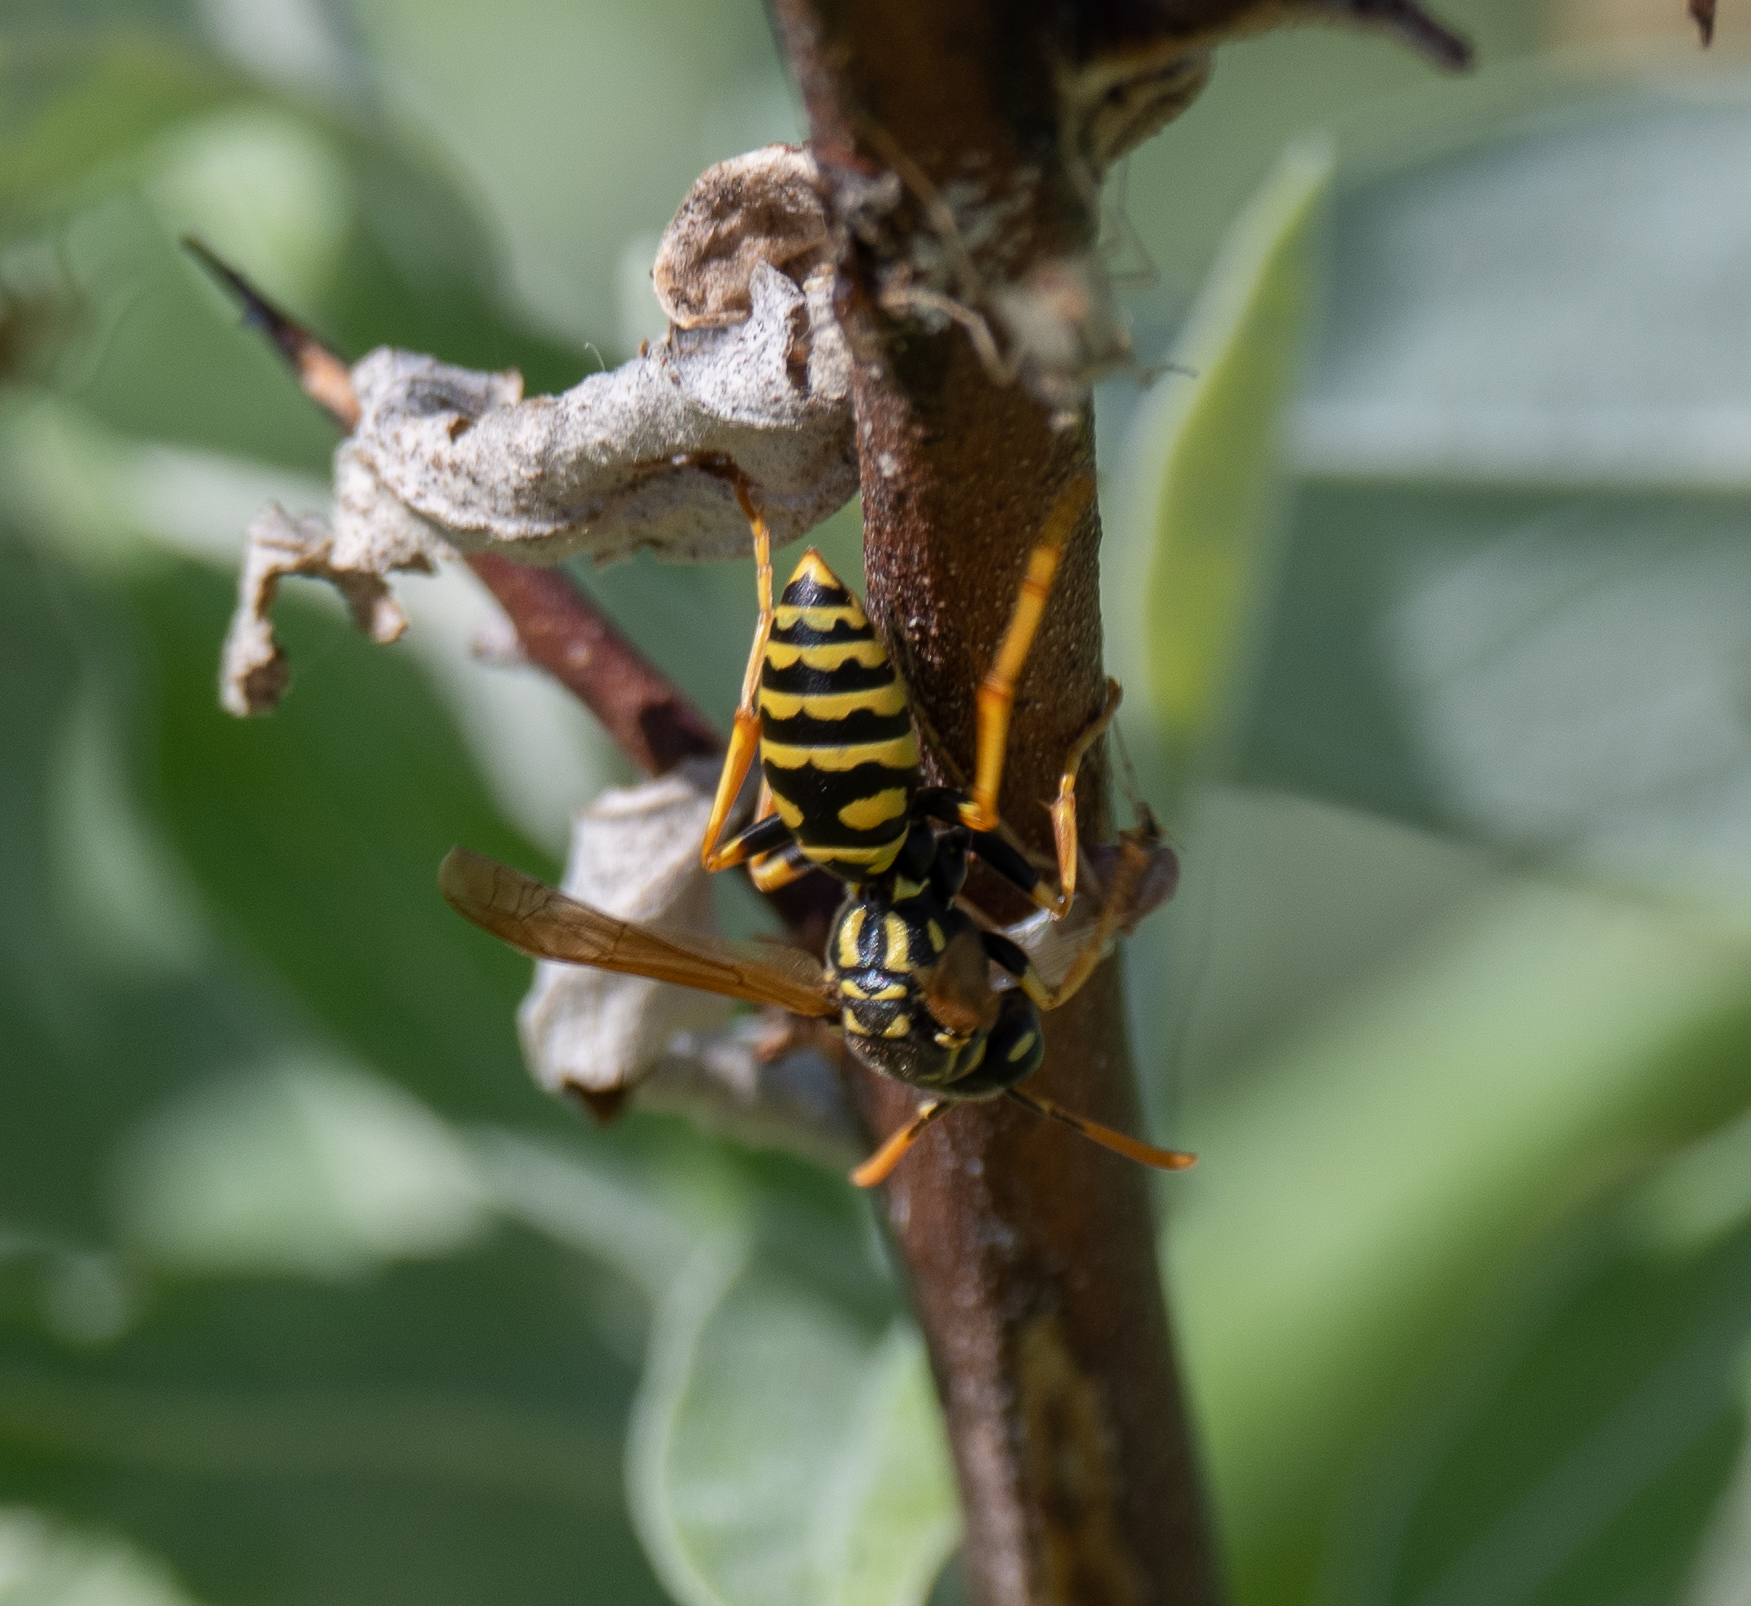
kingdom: Animalia
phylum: Arthropoda
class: Insecta
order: Hymenoptera
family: Eumenidae
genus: Polistes
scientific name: Polistes dominula
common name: Paper wasp
